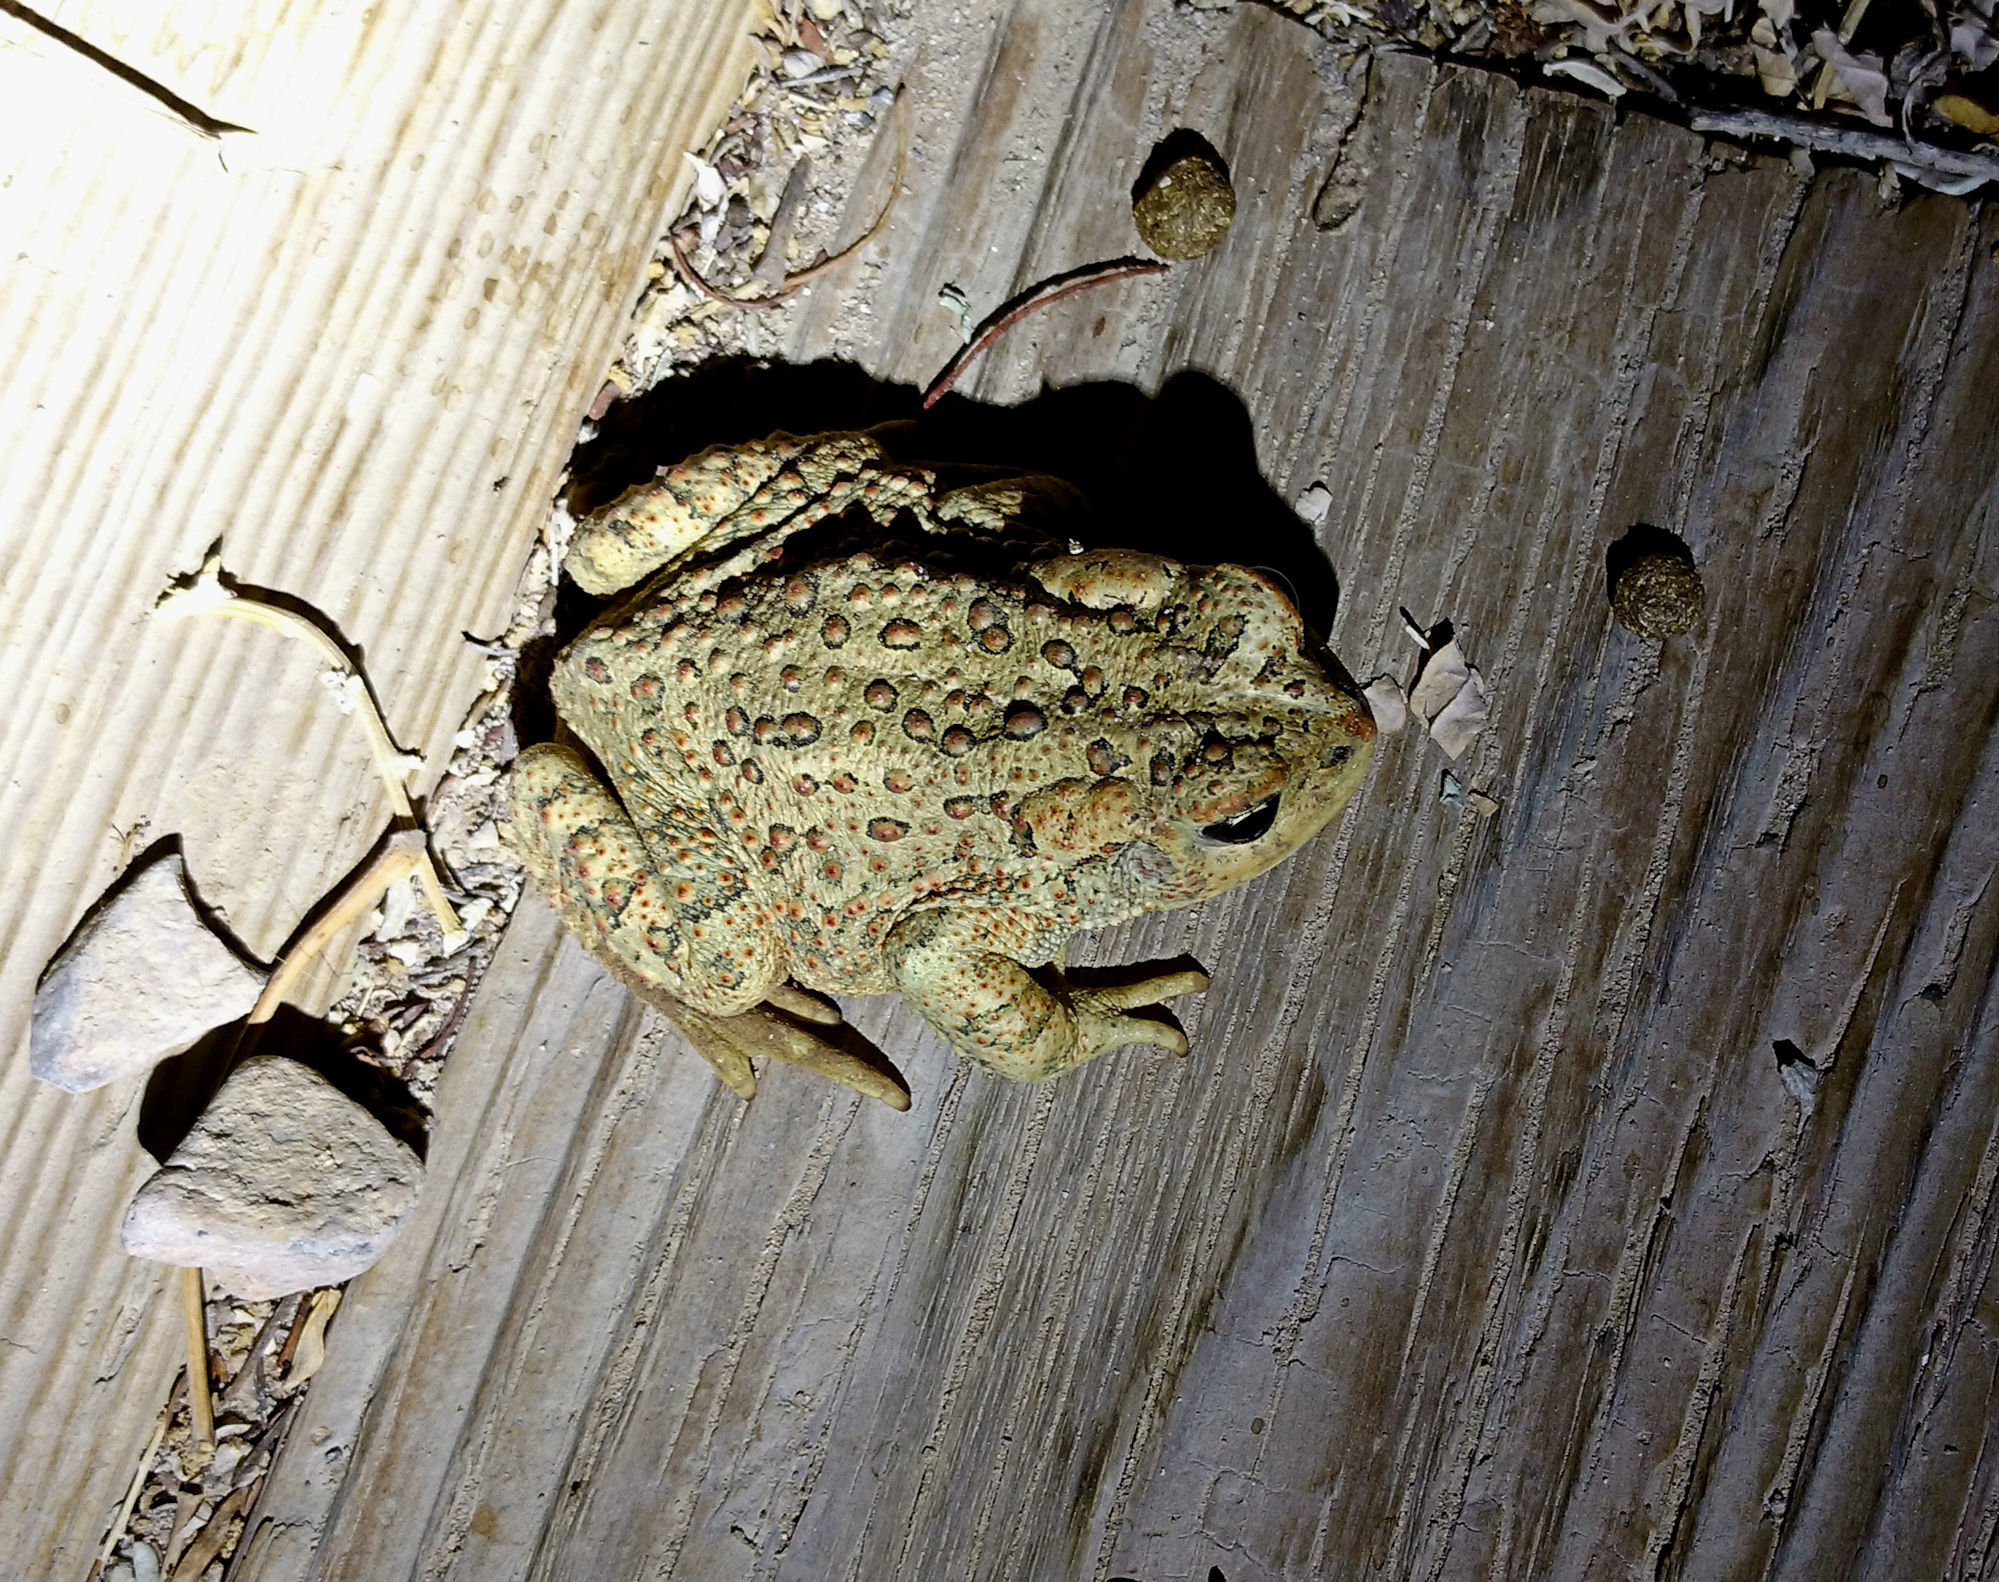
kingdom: Animalia
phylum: Chordata
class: Amphibia
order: Anura
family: Bufonidae
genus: Anaxyrus
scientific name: Anaxyrus woodhousii
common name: Woodhouse's toad
